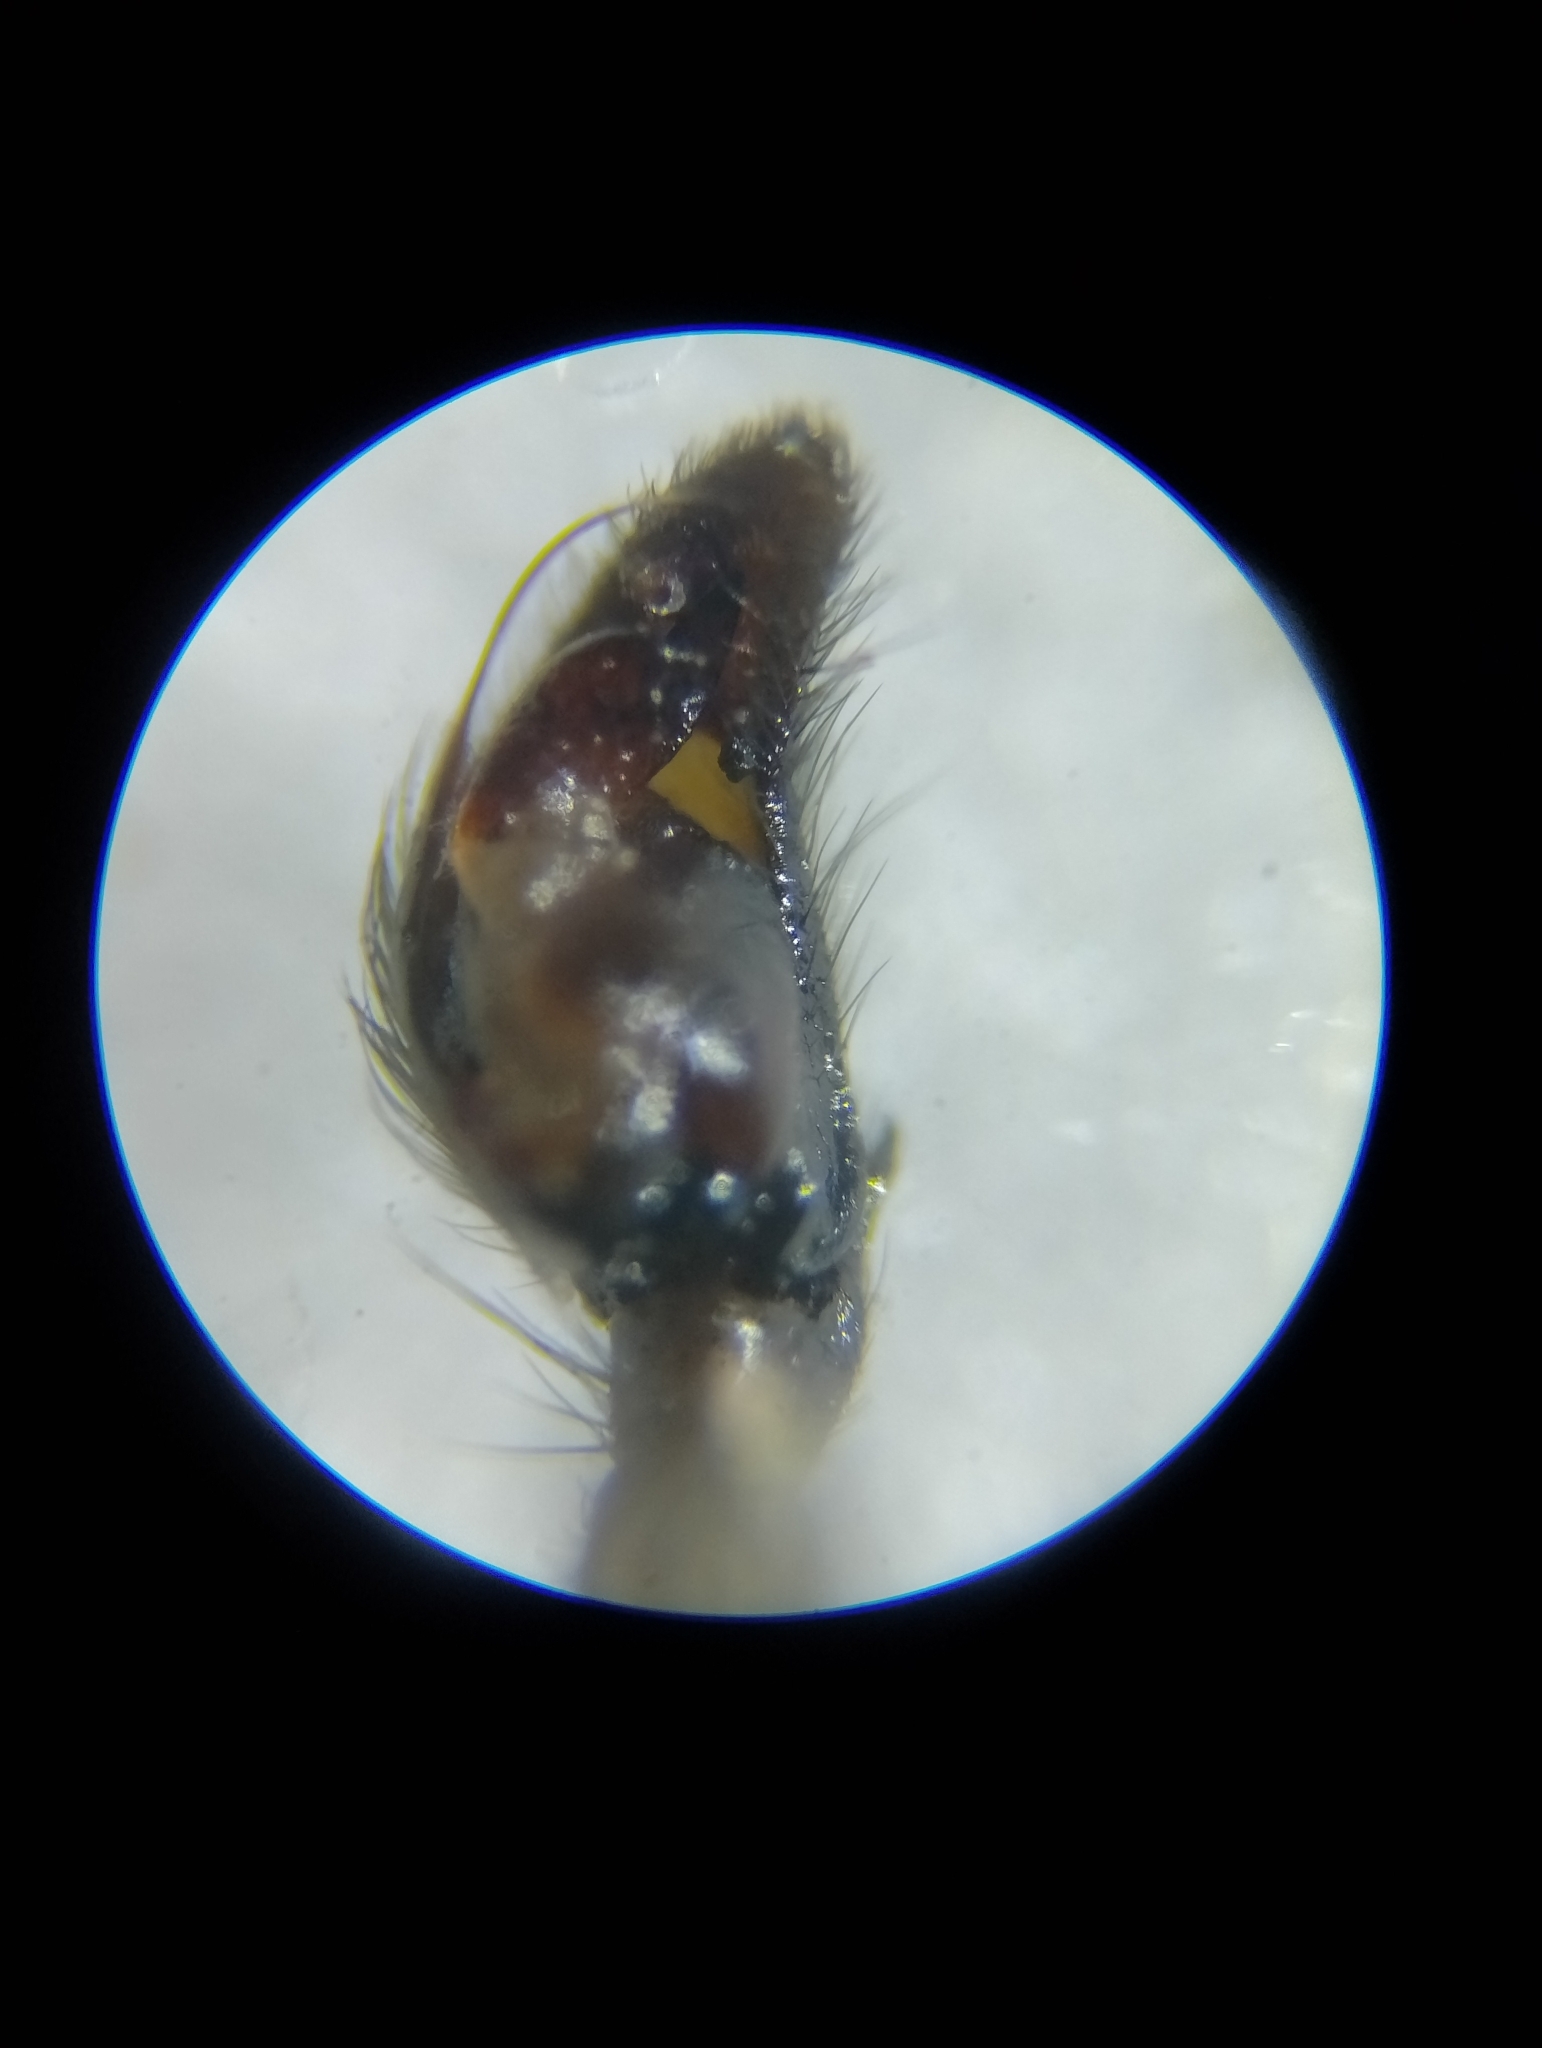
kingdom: Animalia
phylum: Arthropoda
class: Arachnida
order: Araneae
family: Gnaphosidae
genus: Gnaphosa
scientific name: Gnaphosa lapponum
